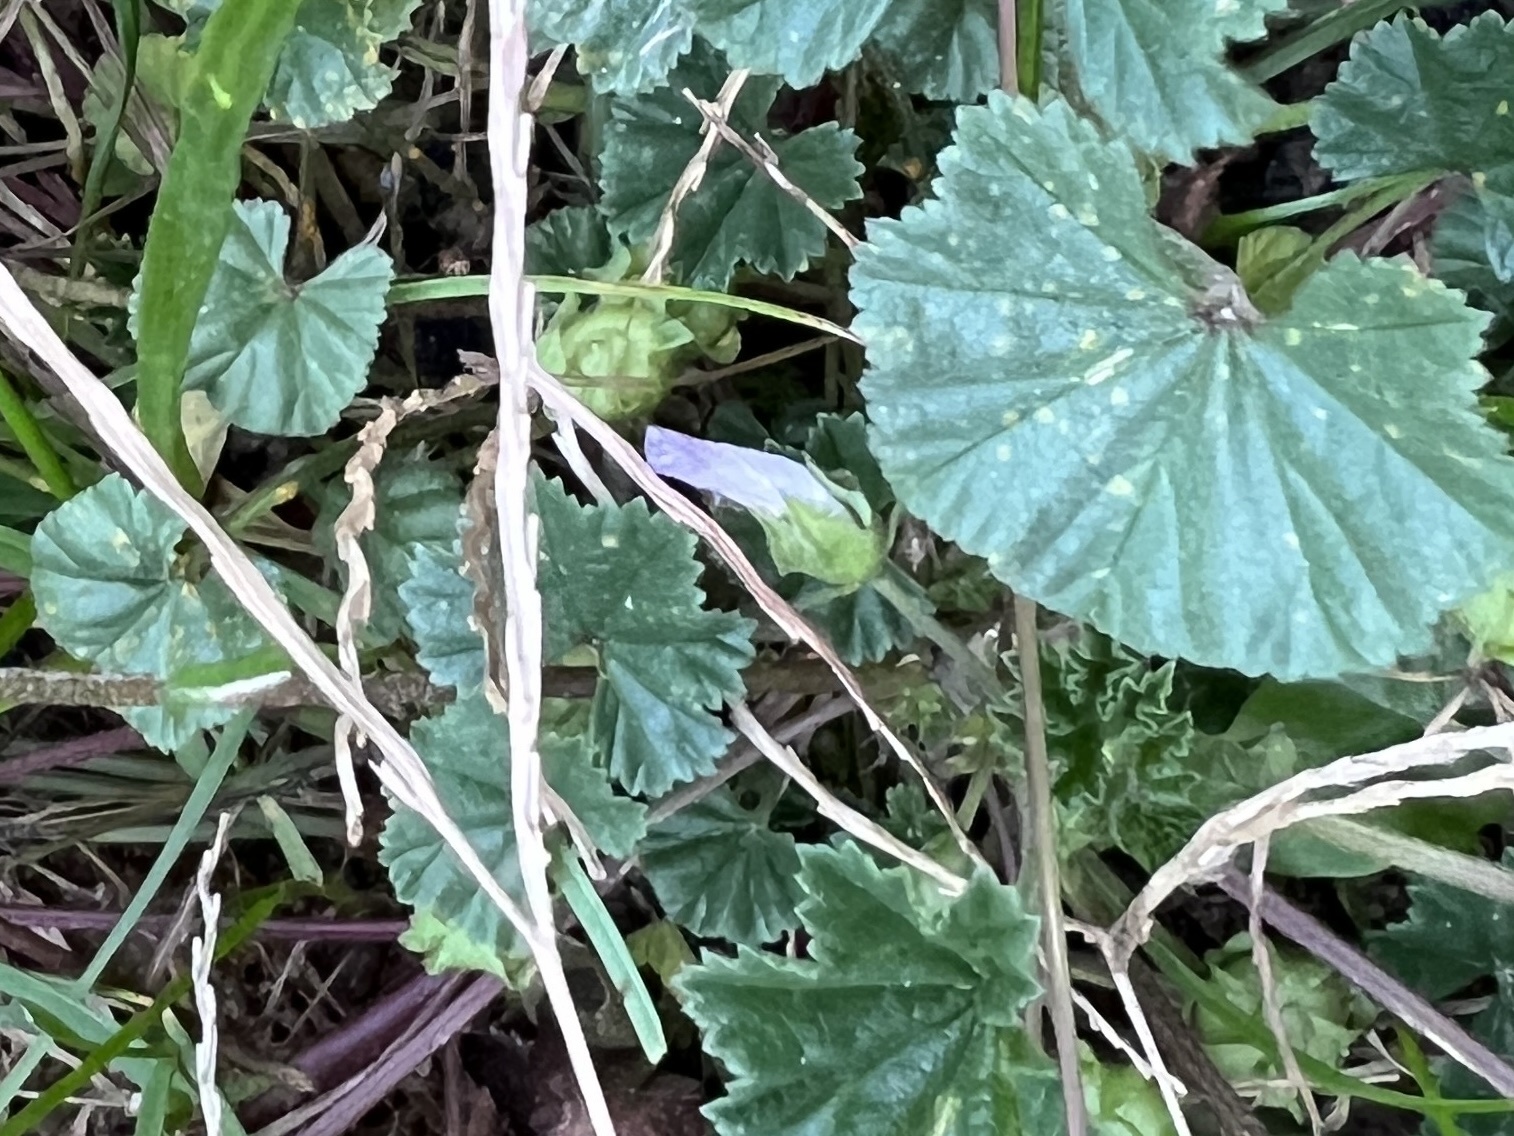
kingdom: Plantae
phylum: Tracheophyta
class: Magnoliopsida
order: Malvales
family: Malvaceae
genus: Malva
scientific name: Malva neglecta
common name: Common mallow
